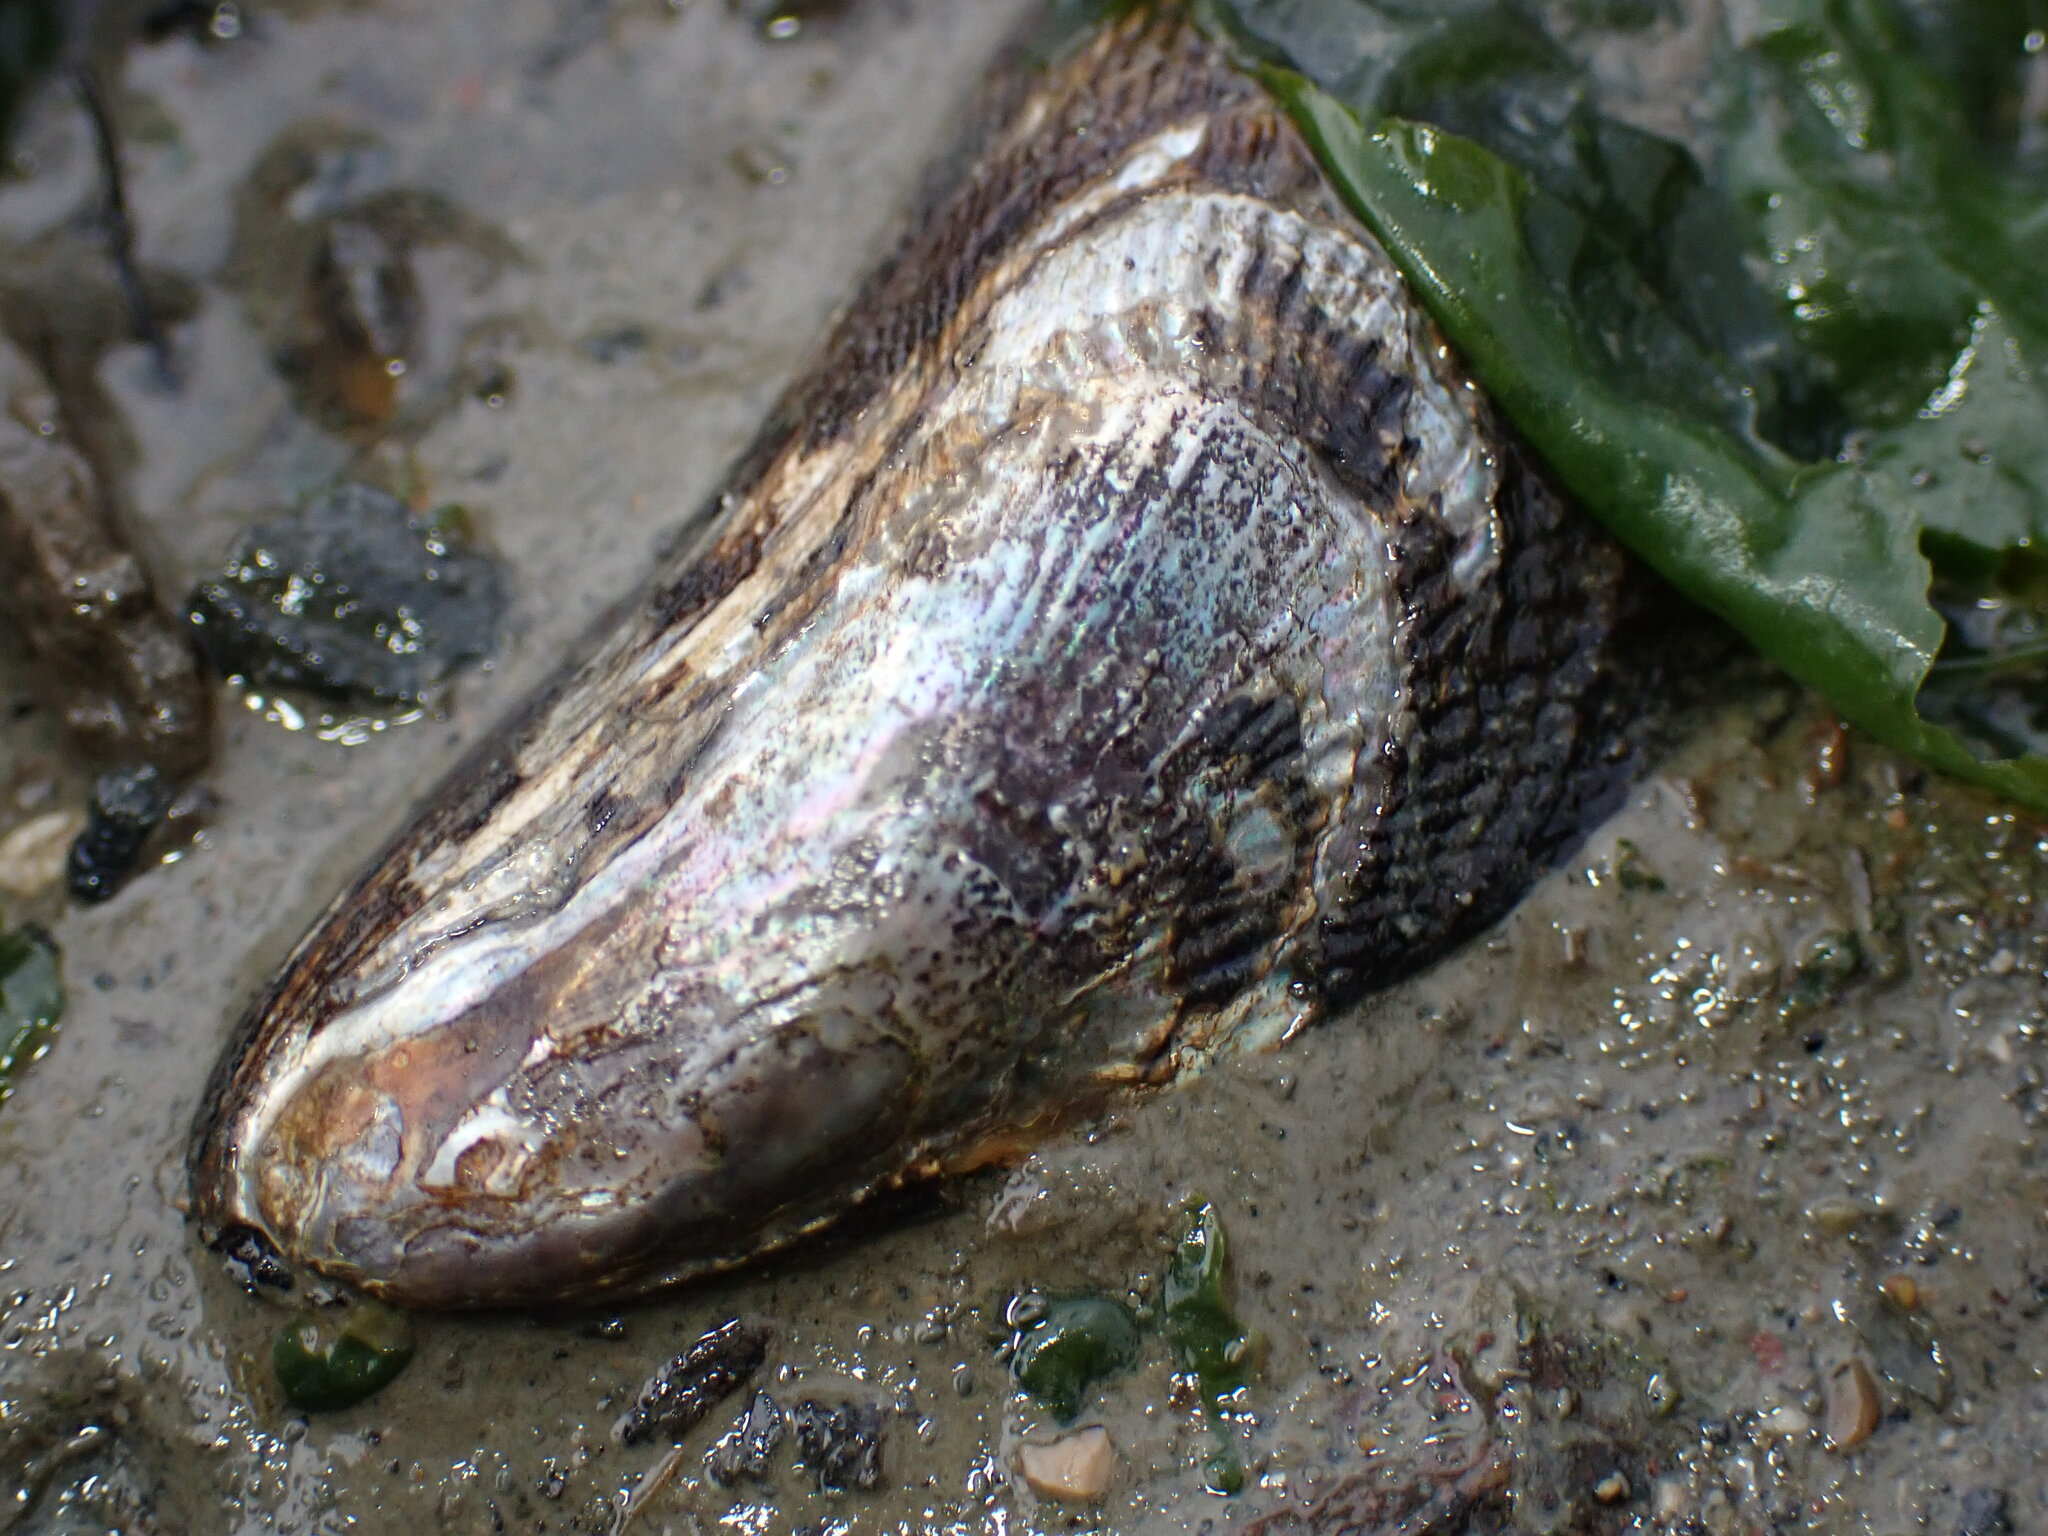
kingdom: Animalia
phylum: Mollusca
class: Bivalvia
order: Mytilida
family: Mytilidae
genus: Geukensia
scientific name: Geukensia demissa
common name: Ribbed mussel
